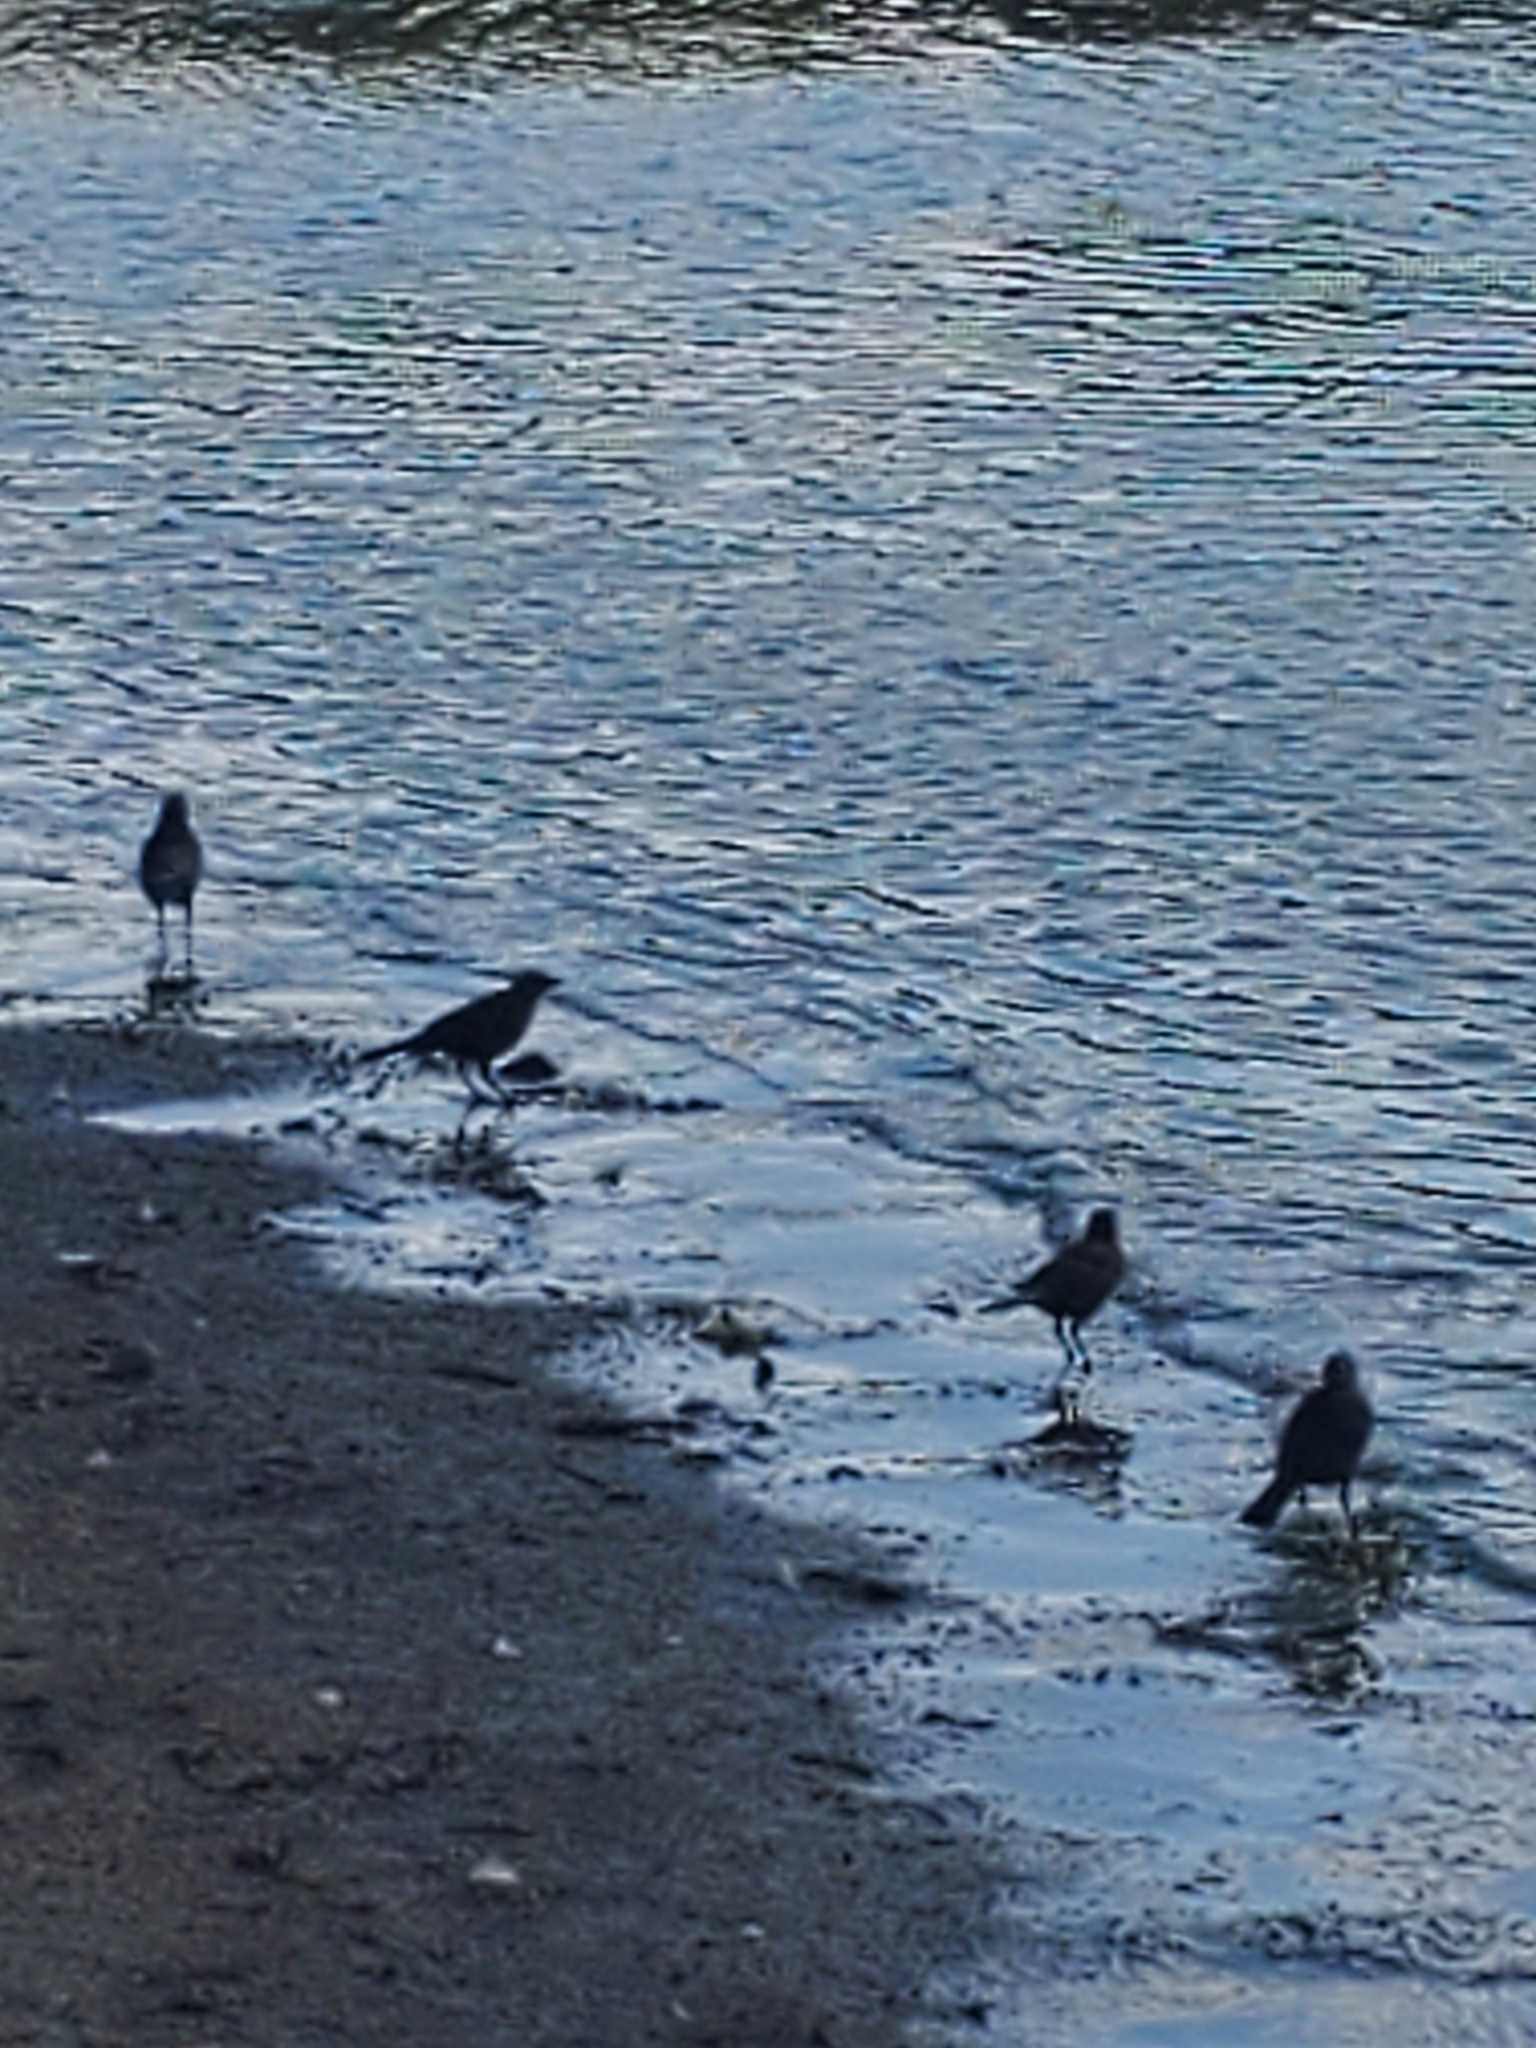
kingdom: Animalia
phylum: Chordata
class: Aves
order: Passeriformes
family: Icteridae
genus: Euphagus
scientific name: Euphagus cyanocephalus
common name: Brewer's blackbird
